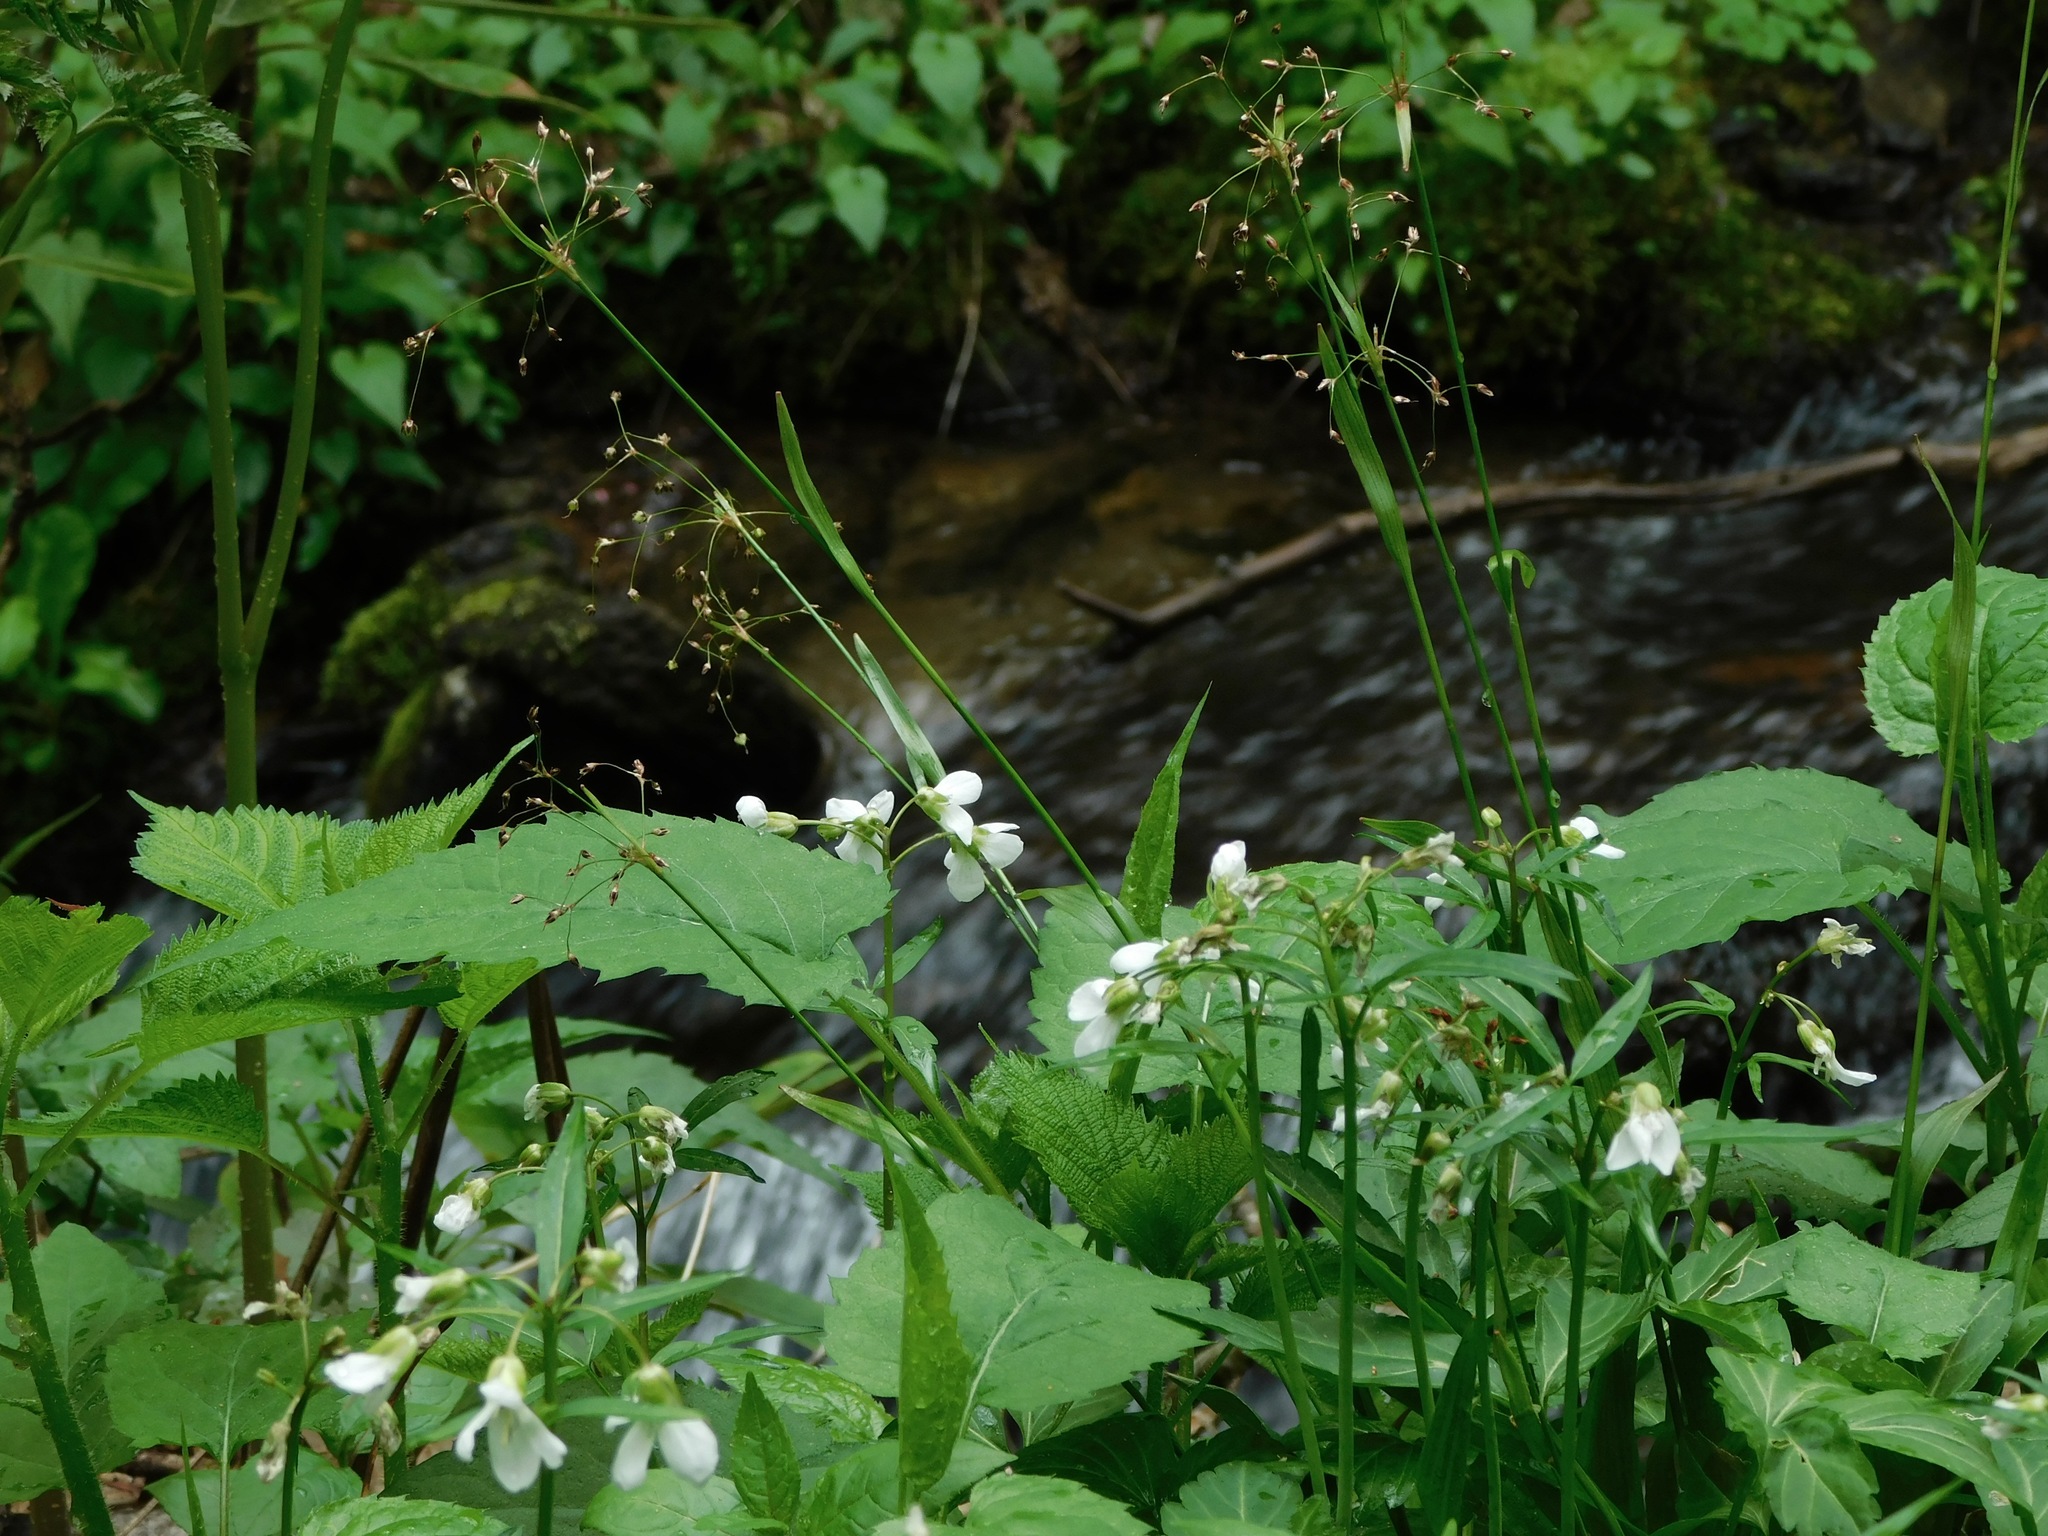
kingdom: Plantae
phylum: Tracheophyta
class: Liliopsida
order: Poales
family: Juncaceae
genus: Luzula
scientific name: Luzula acuminata
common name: Hairy woodrush
